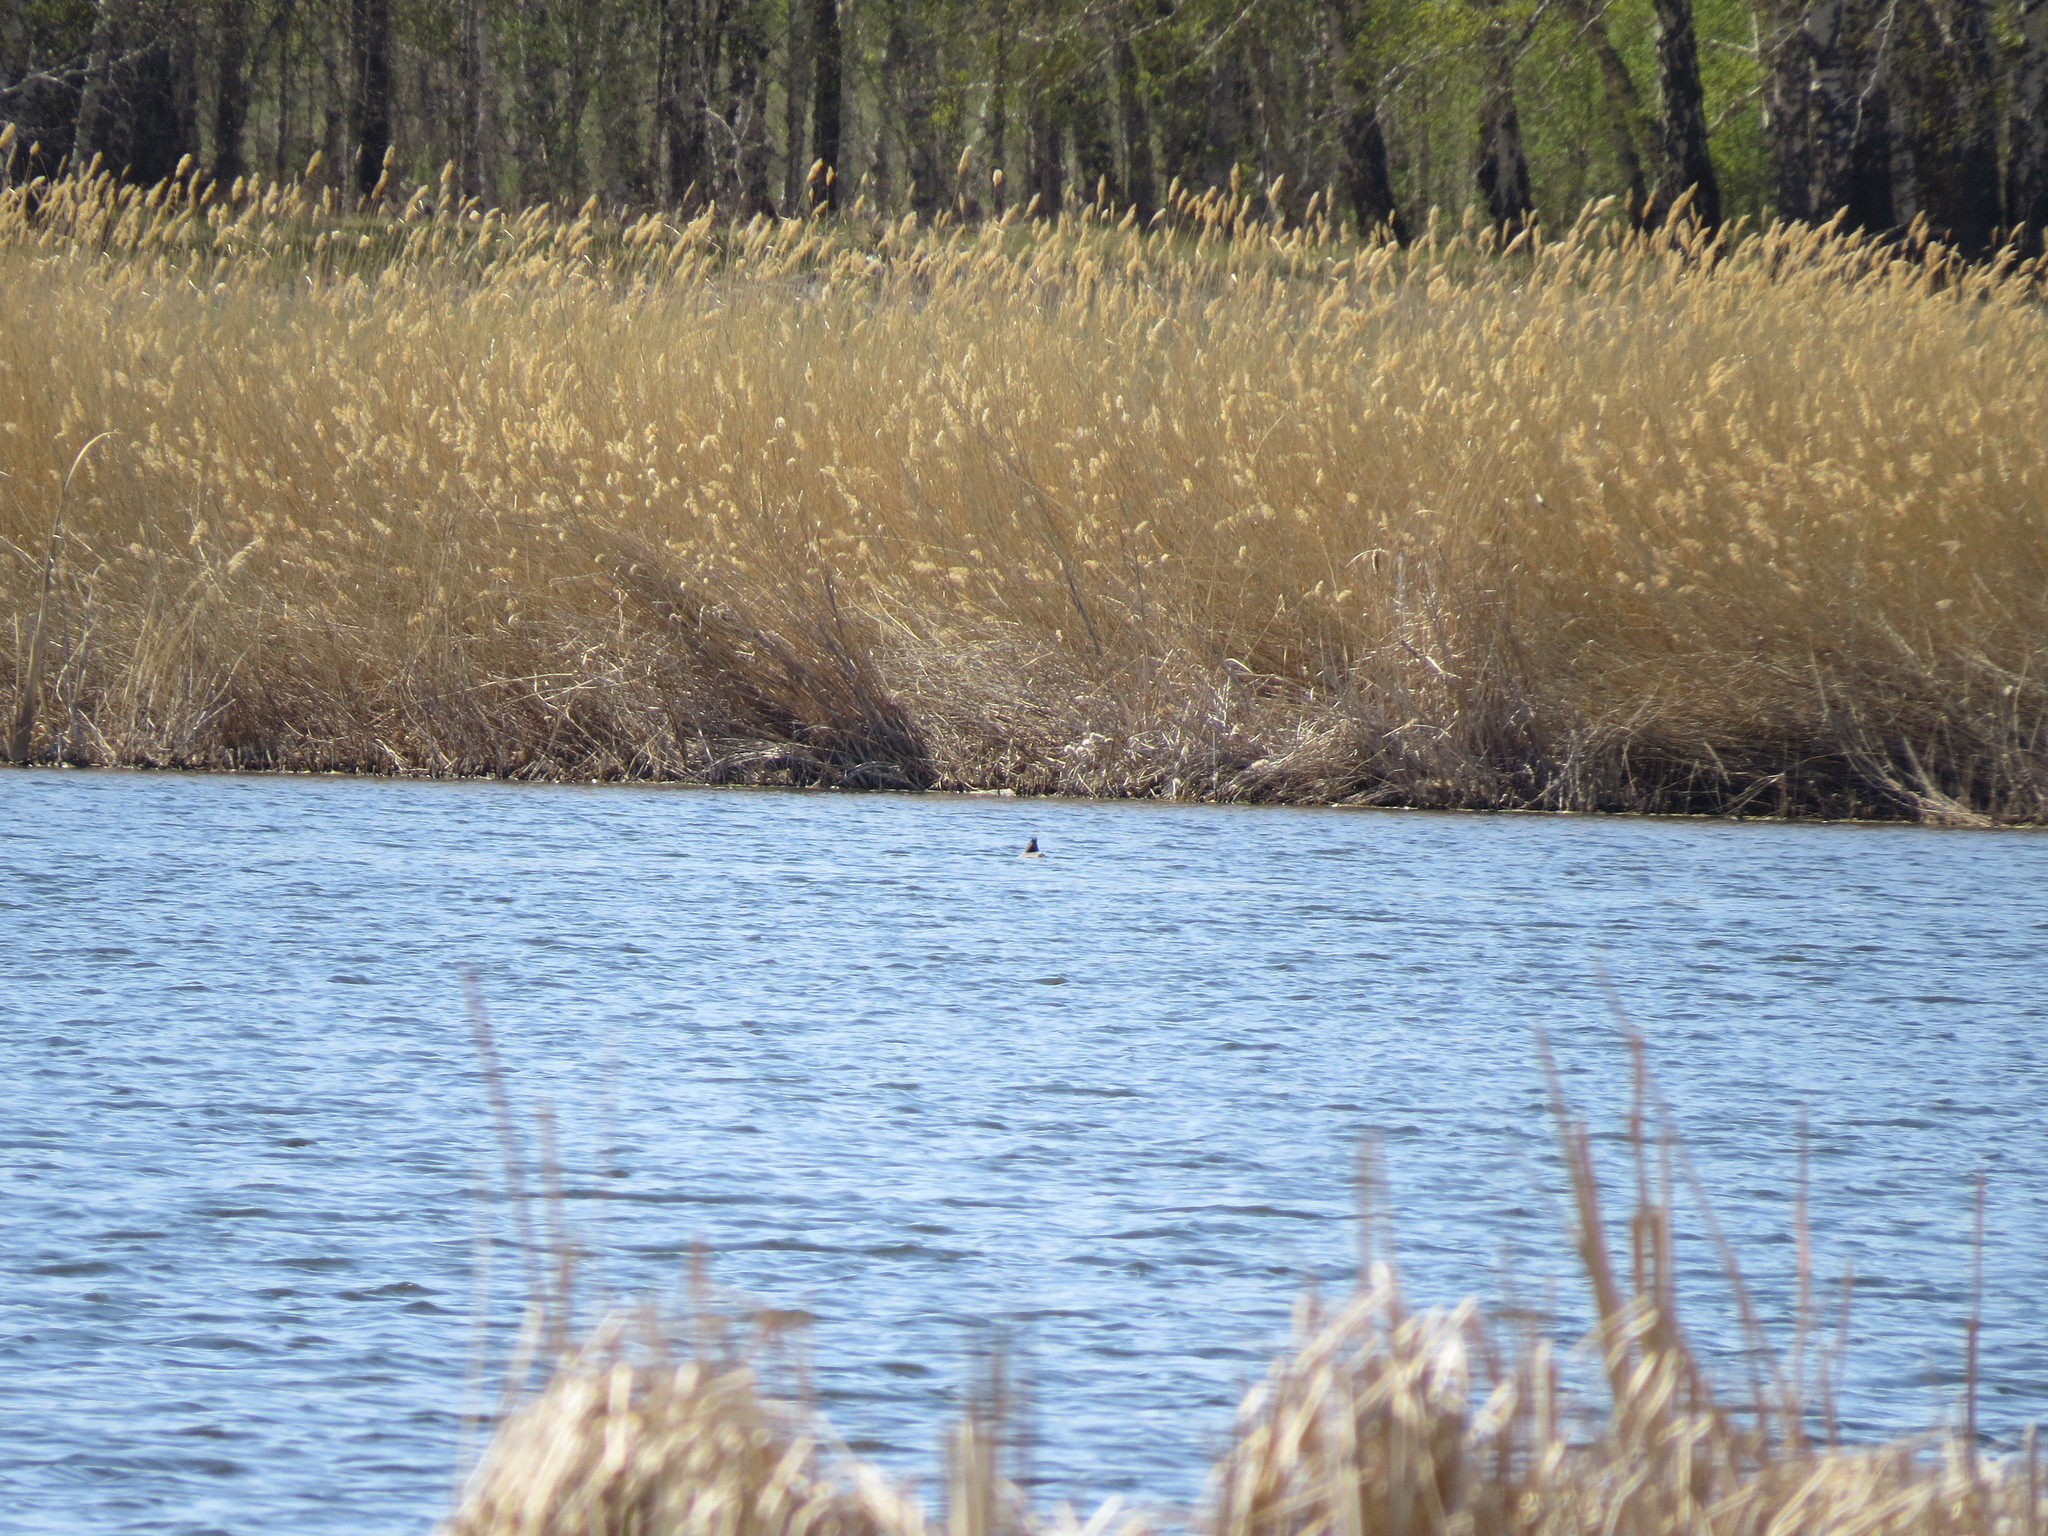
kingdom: Animalia
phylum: Chordata
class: Aves
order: Podicipediformes
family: Podicipedidae
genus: Podiceps
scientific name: Podiceps cristatus
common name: Great crested grebe
